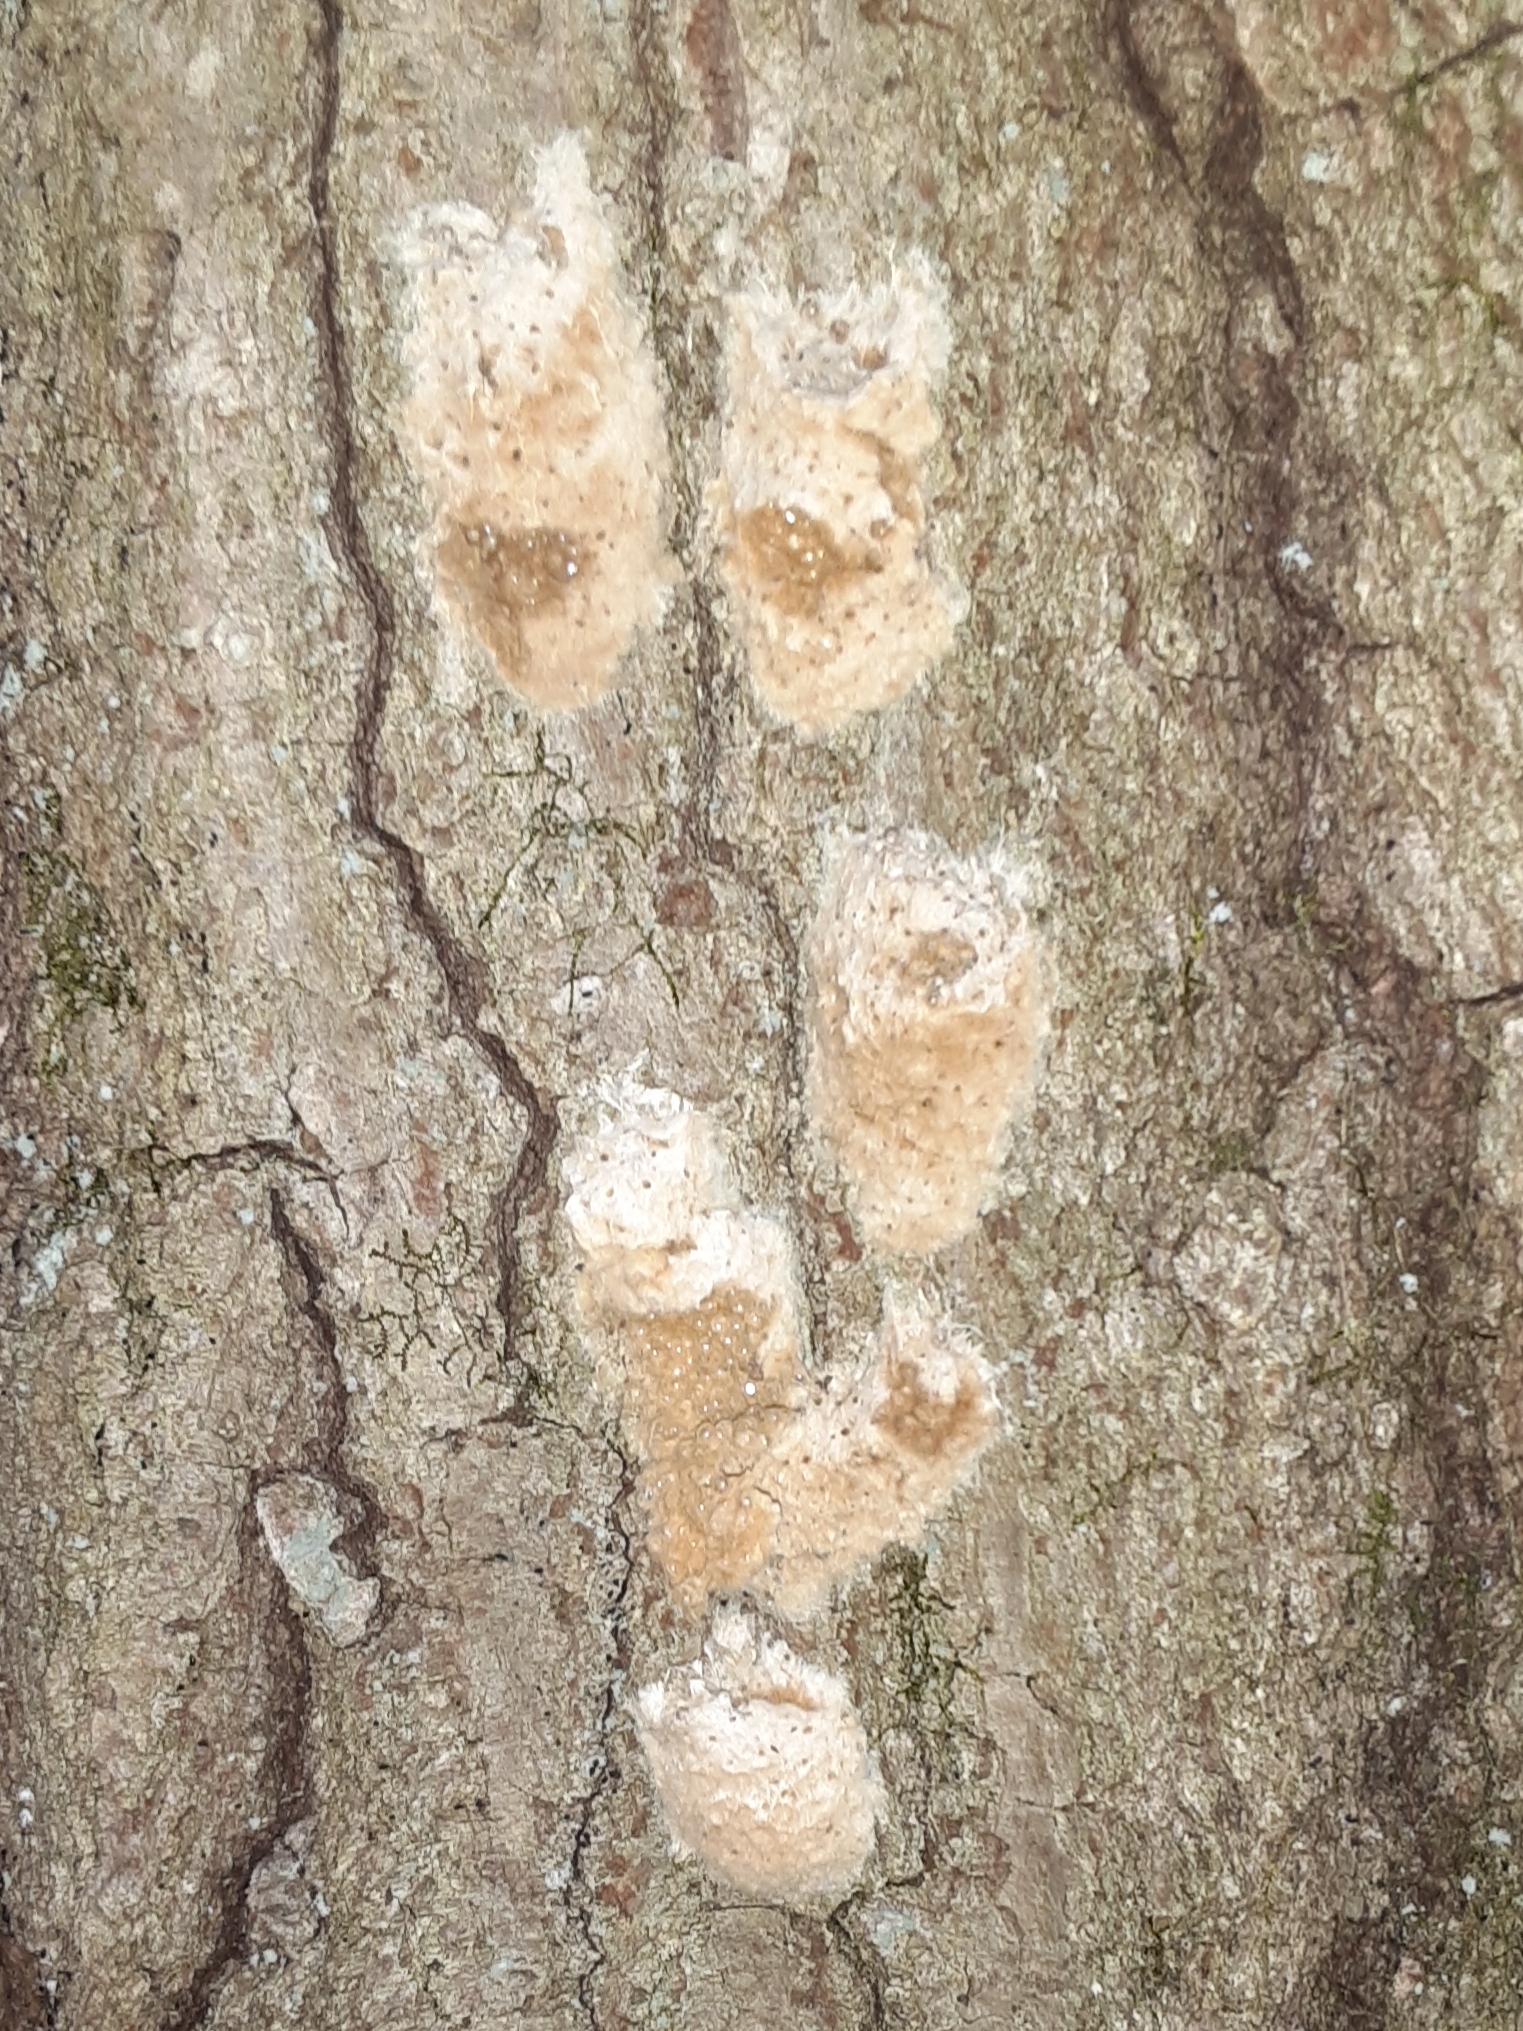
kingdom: Animalia
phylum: Arthropoda
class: Insecta
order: Lepidoptera
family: Erebidae
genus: Lymantria
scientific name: Lymantria dispar
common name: Gypsy moth
